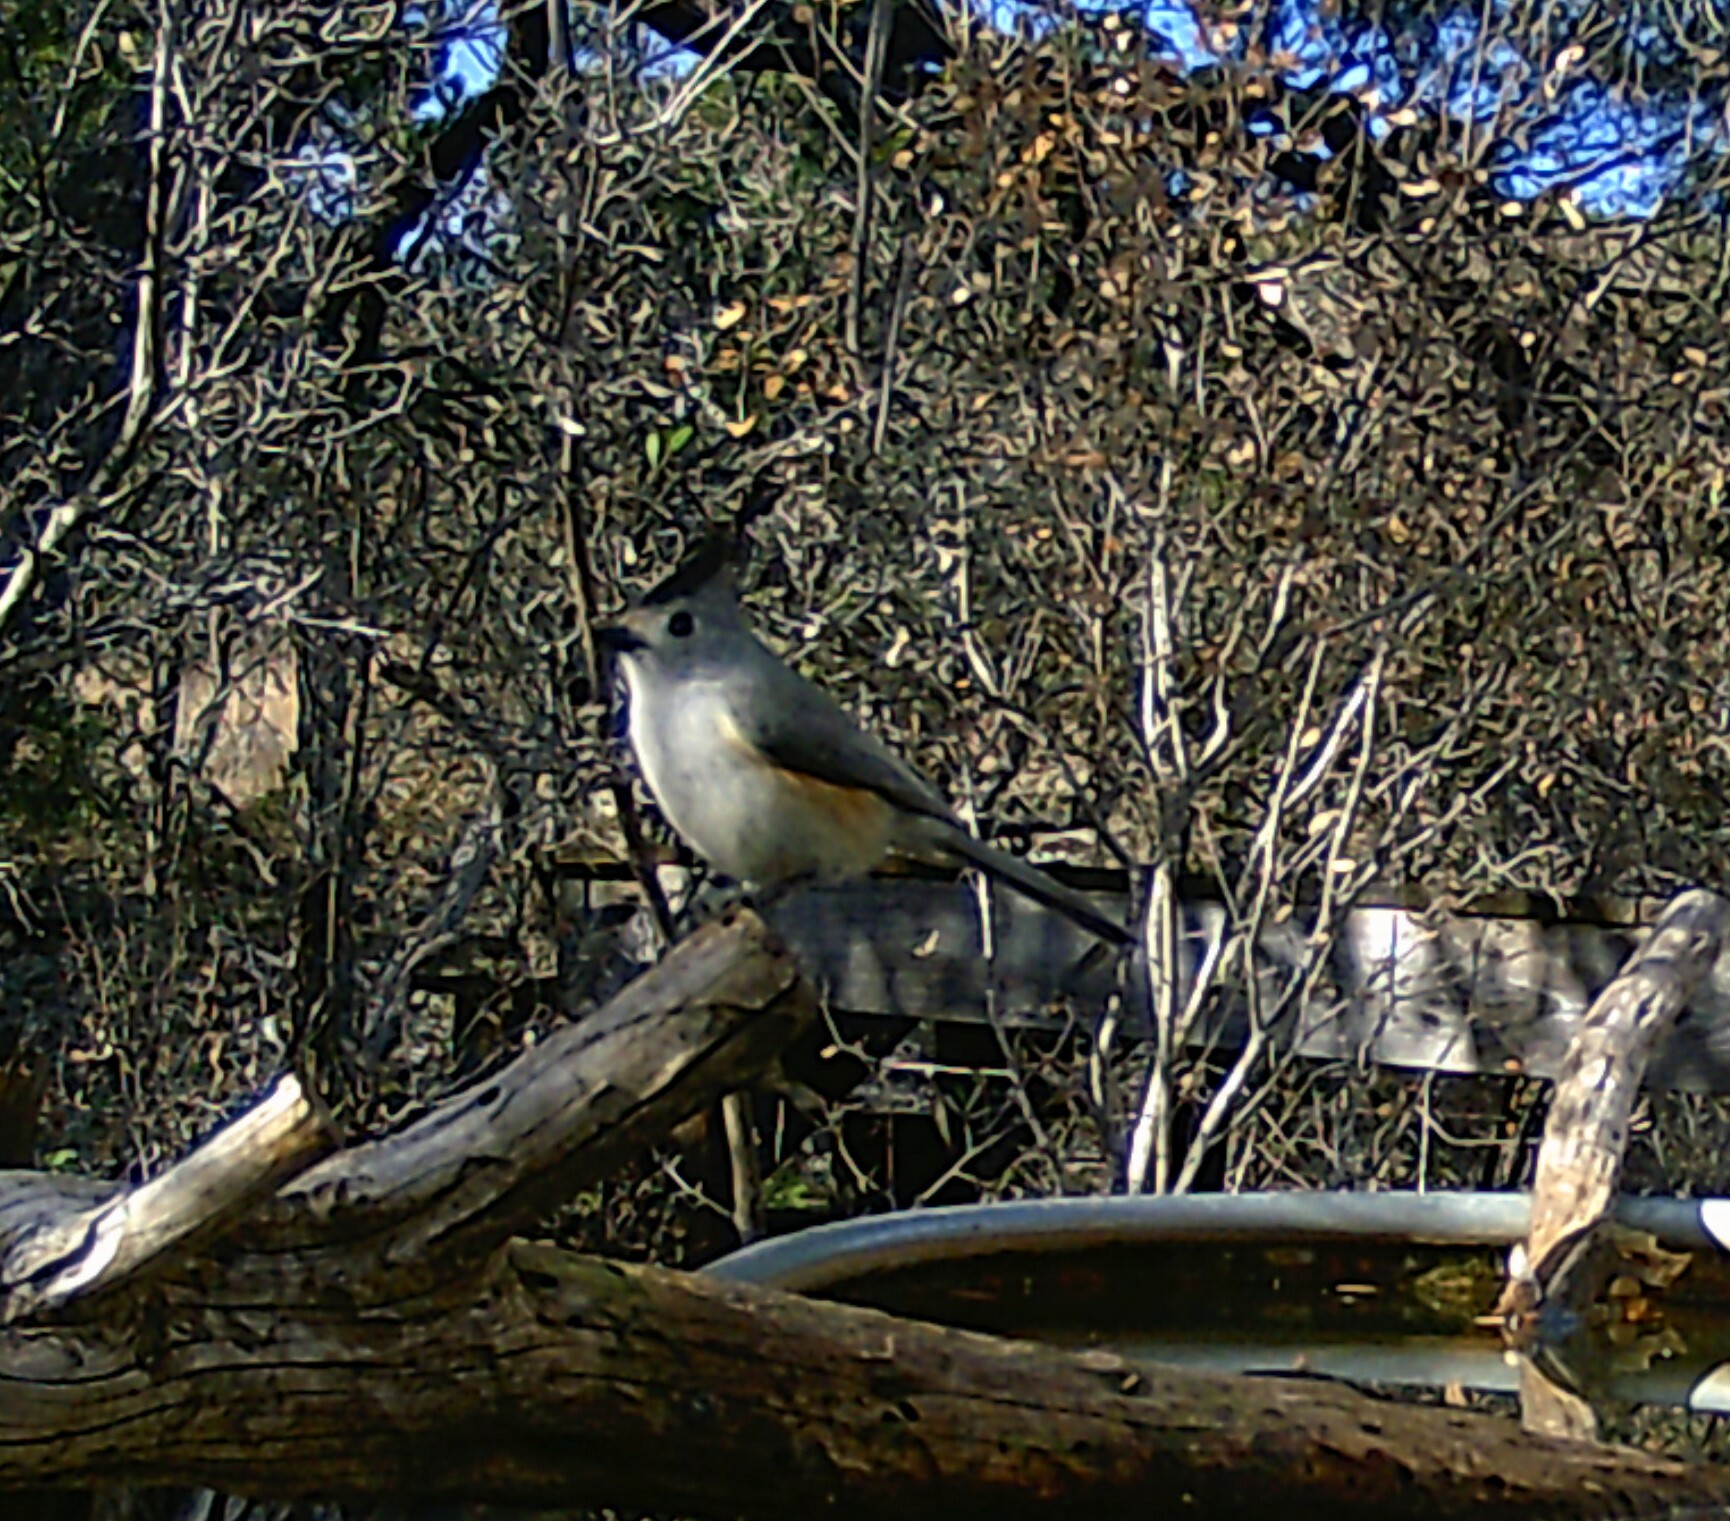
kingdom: Animalia
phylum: Chordata
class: Aves
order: Passeriformes
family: Paridae
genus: Baeolophus
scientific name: Baeolophus atricristatus
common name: Black-crested titmouse
